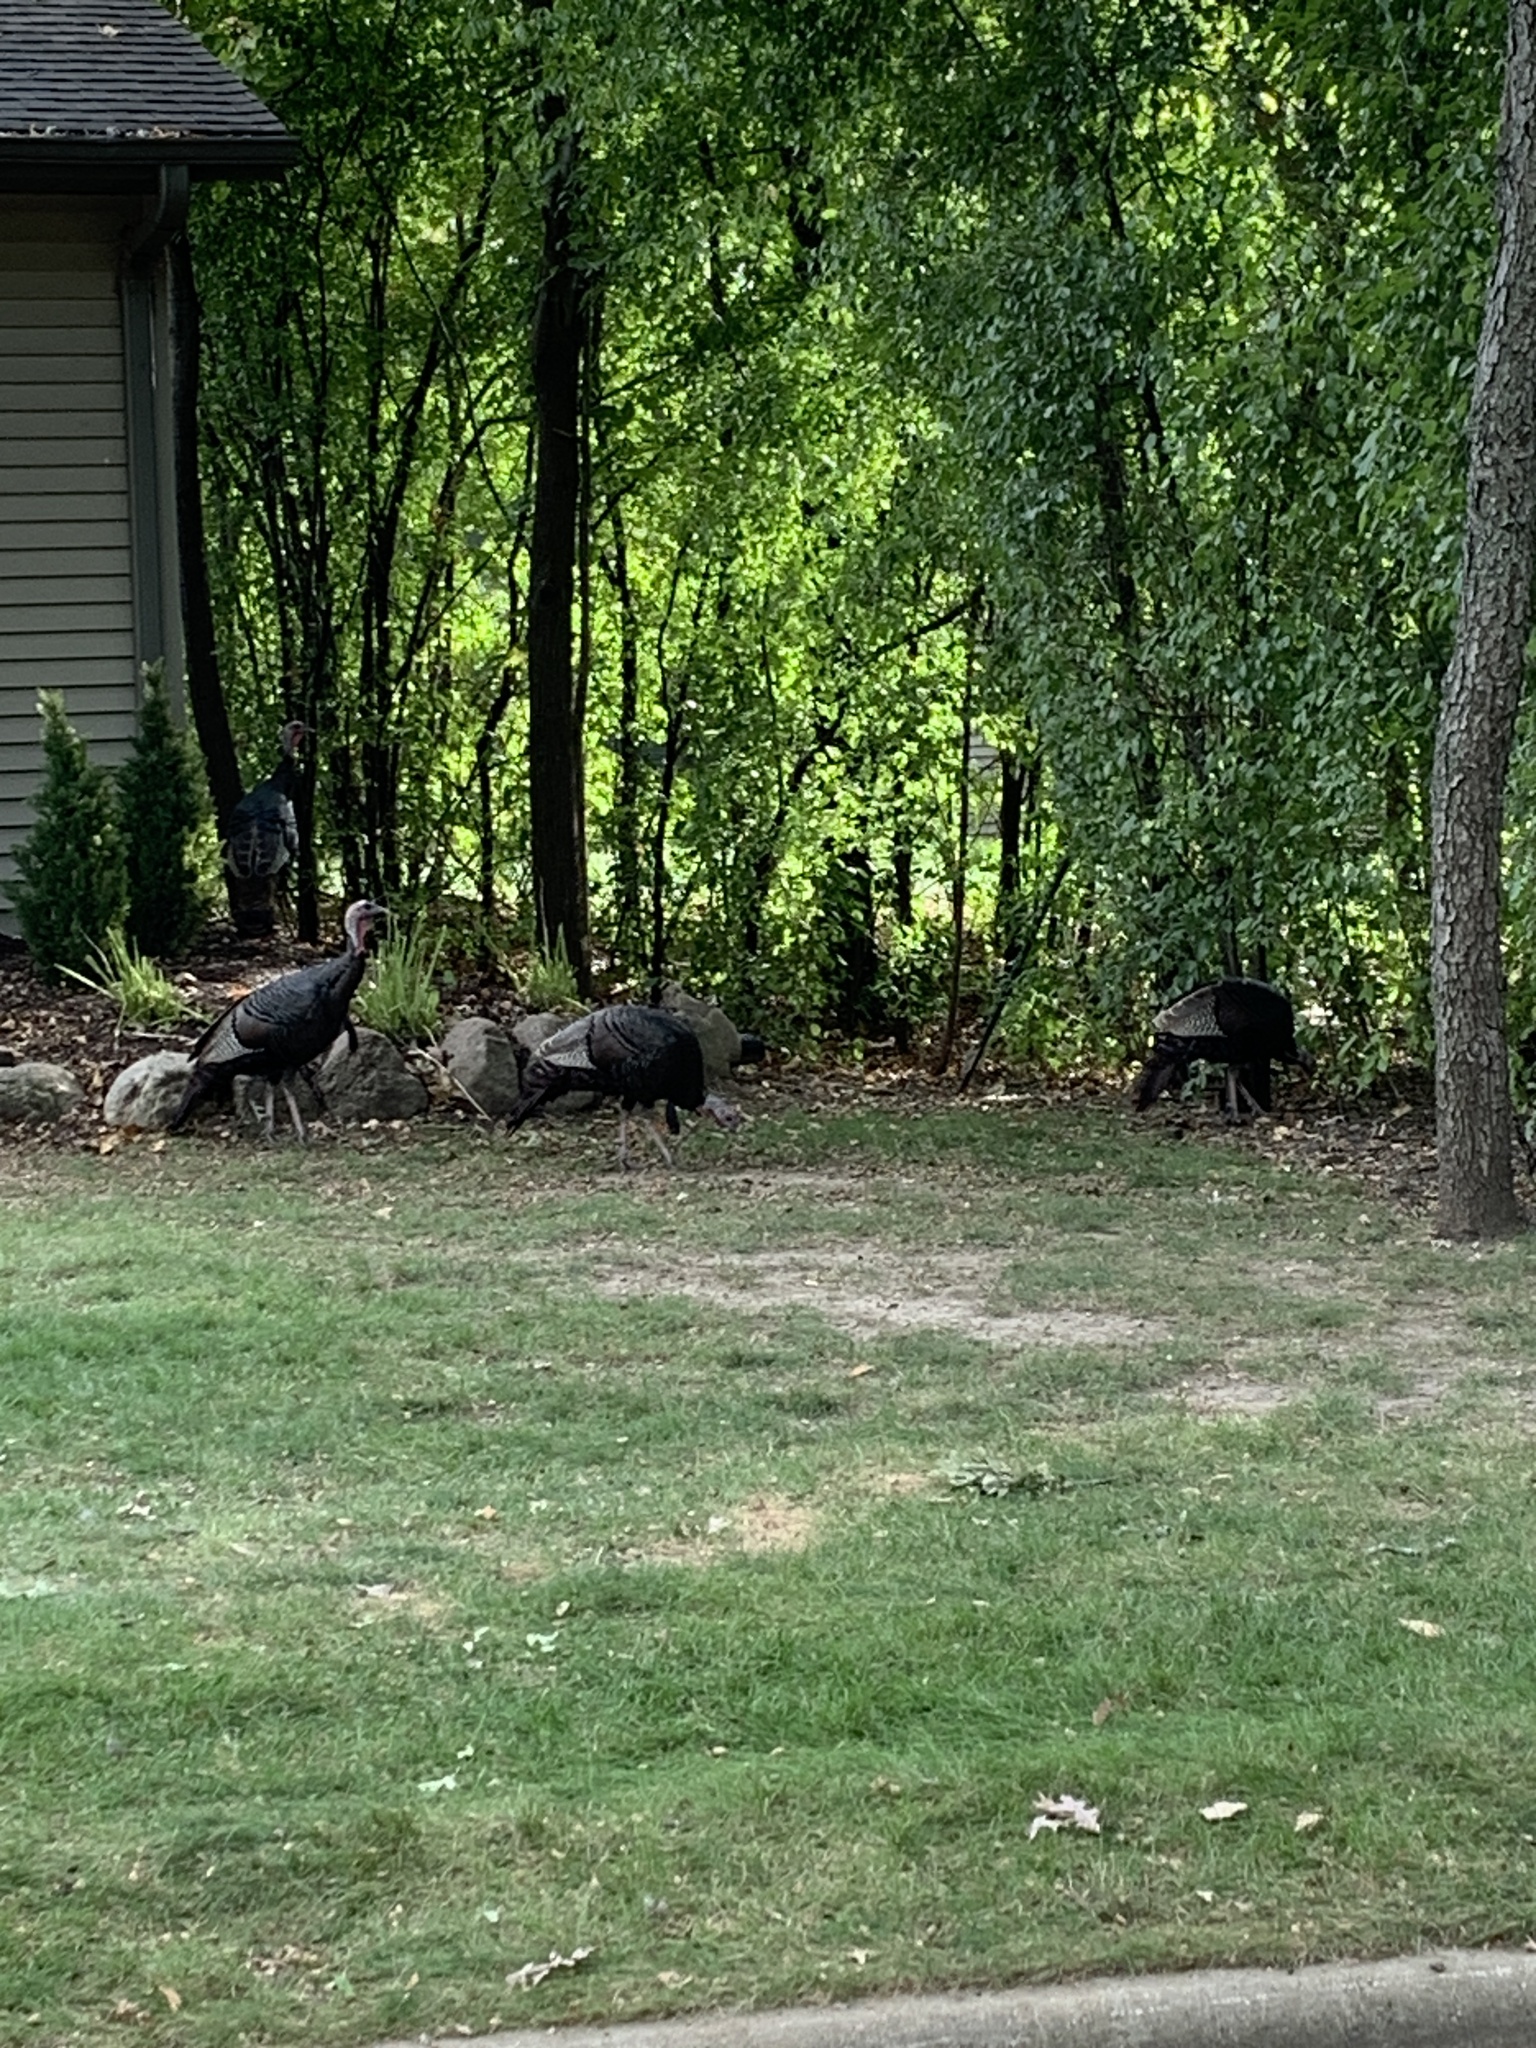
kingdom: Animalia
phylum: Chordata
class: Aves
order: Galliformes
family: Phasianidae
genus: Meleagris
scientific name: Meleagris gallopavo
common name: Wild turkey
